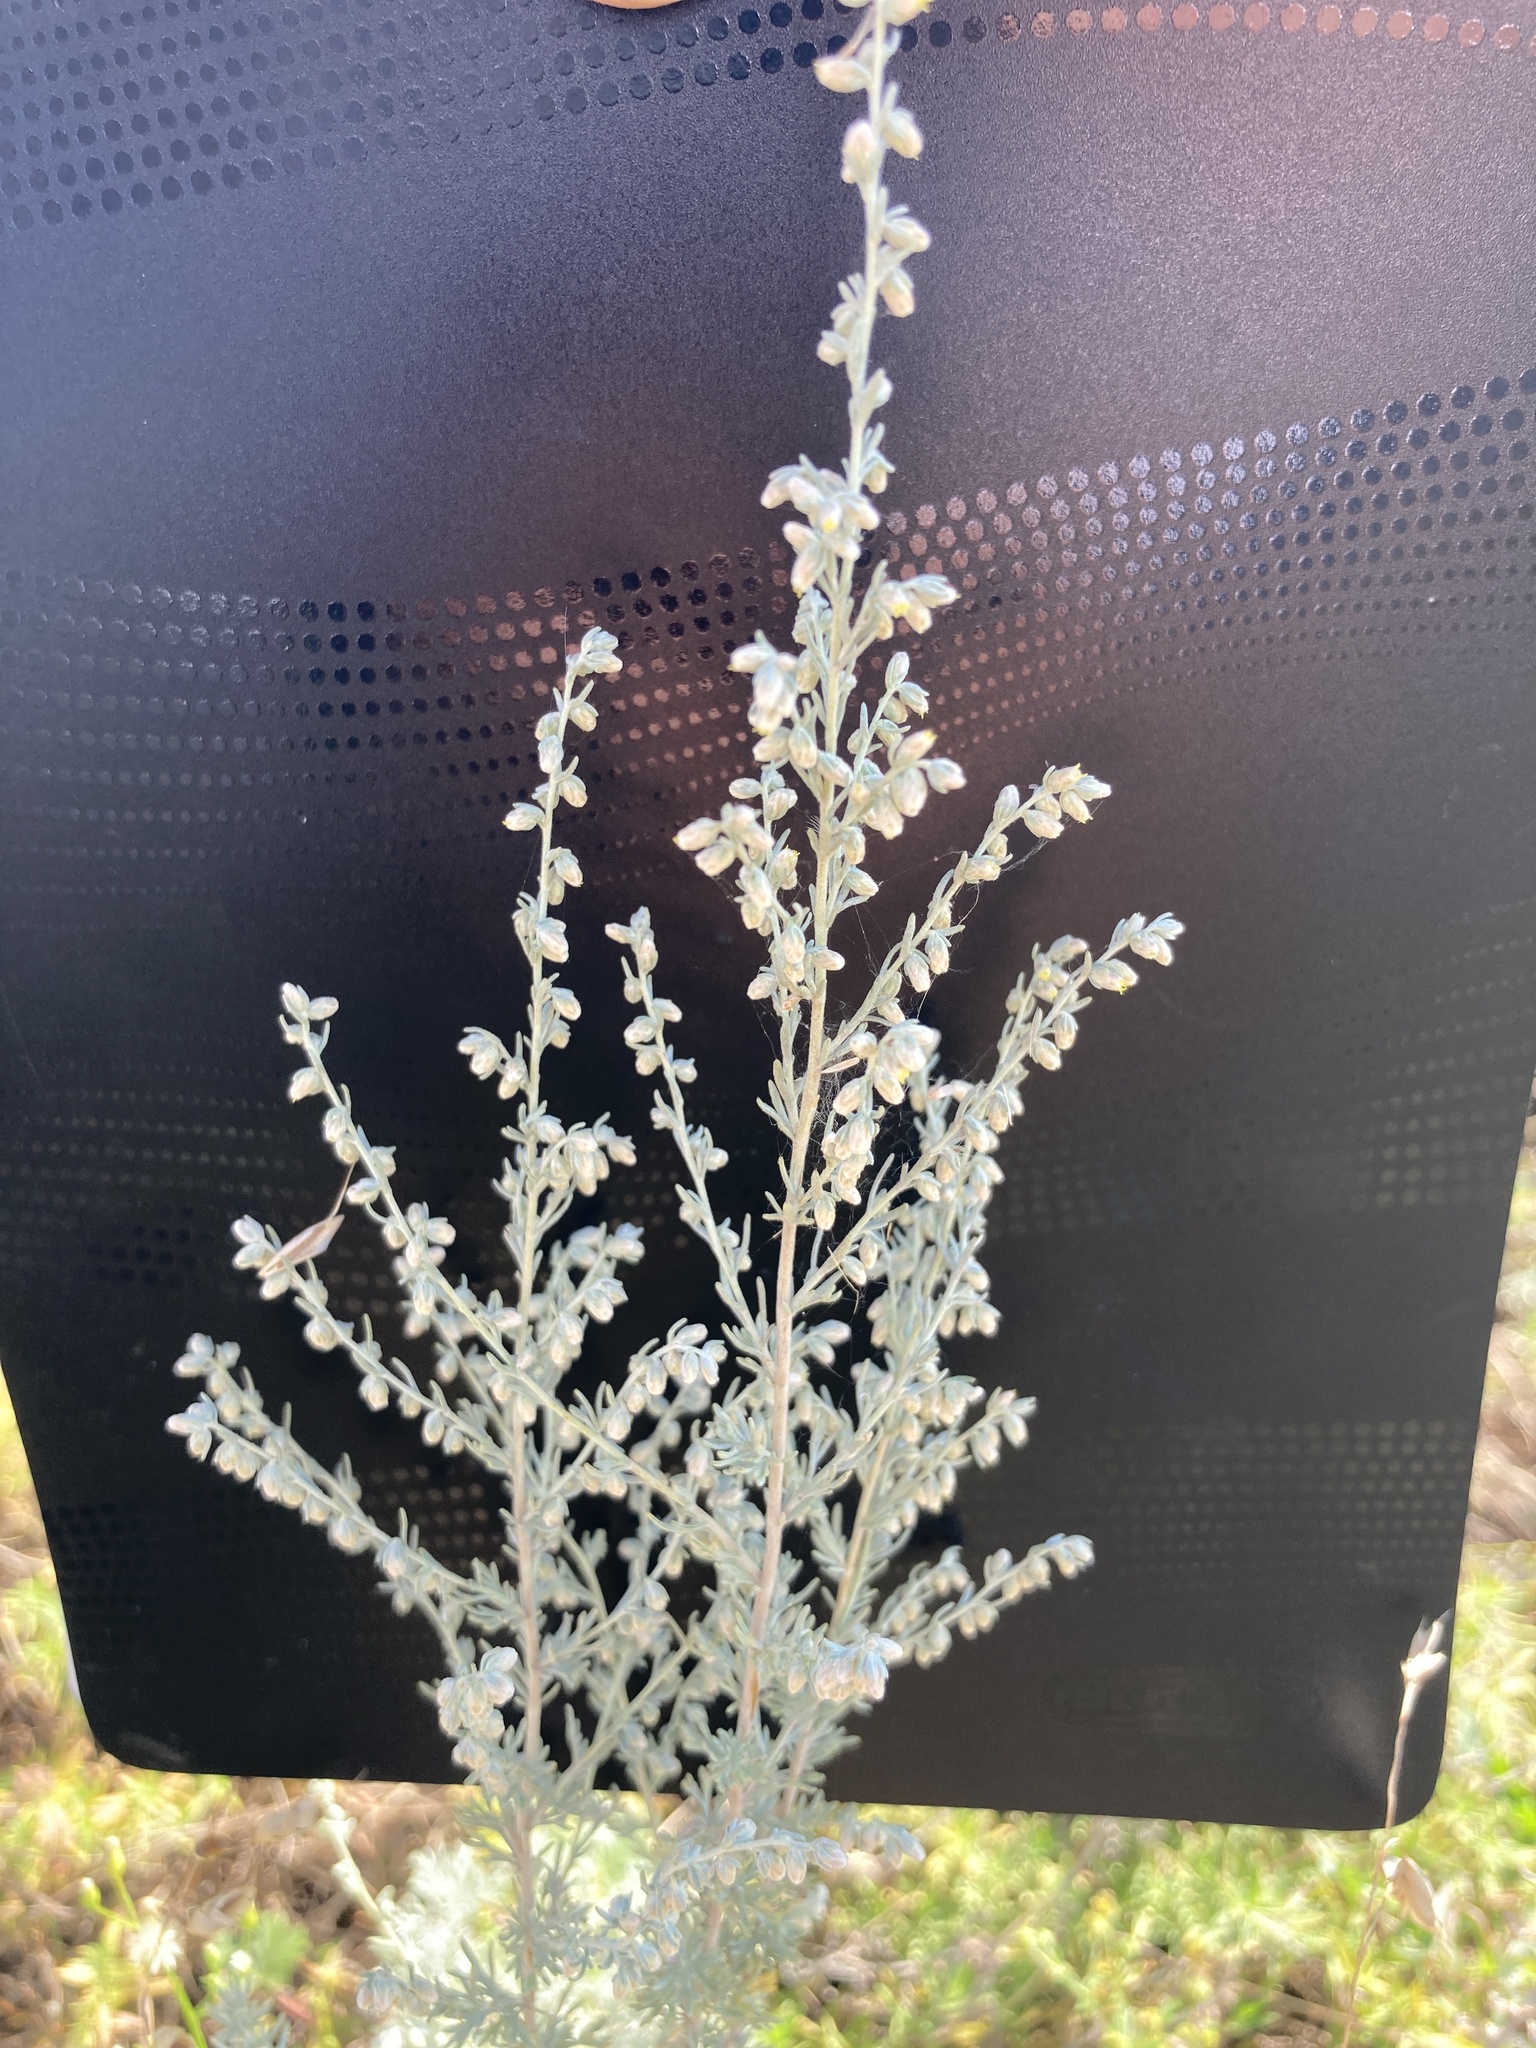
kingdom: Plantae
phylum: Tracheophyta
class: Magnoliopsida
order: Asterales
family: Asteraceae
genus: Artemisia
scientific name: Artemisia austriaca
